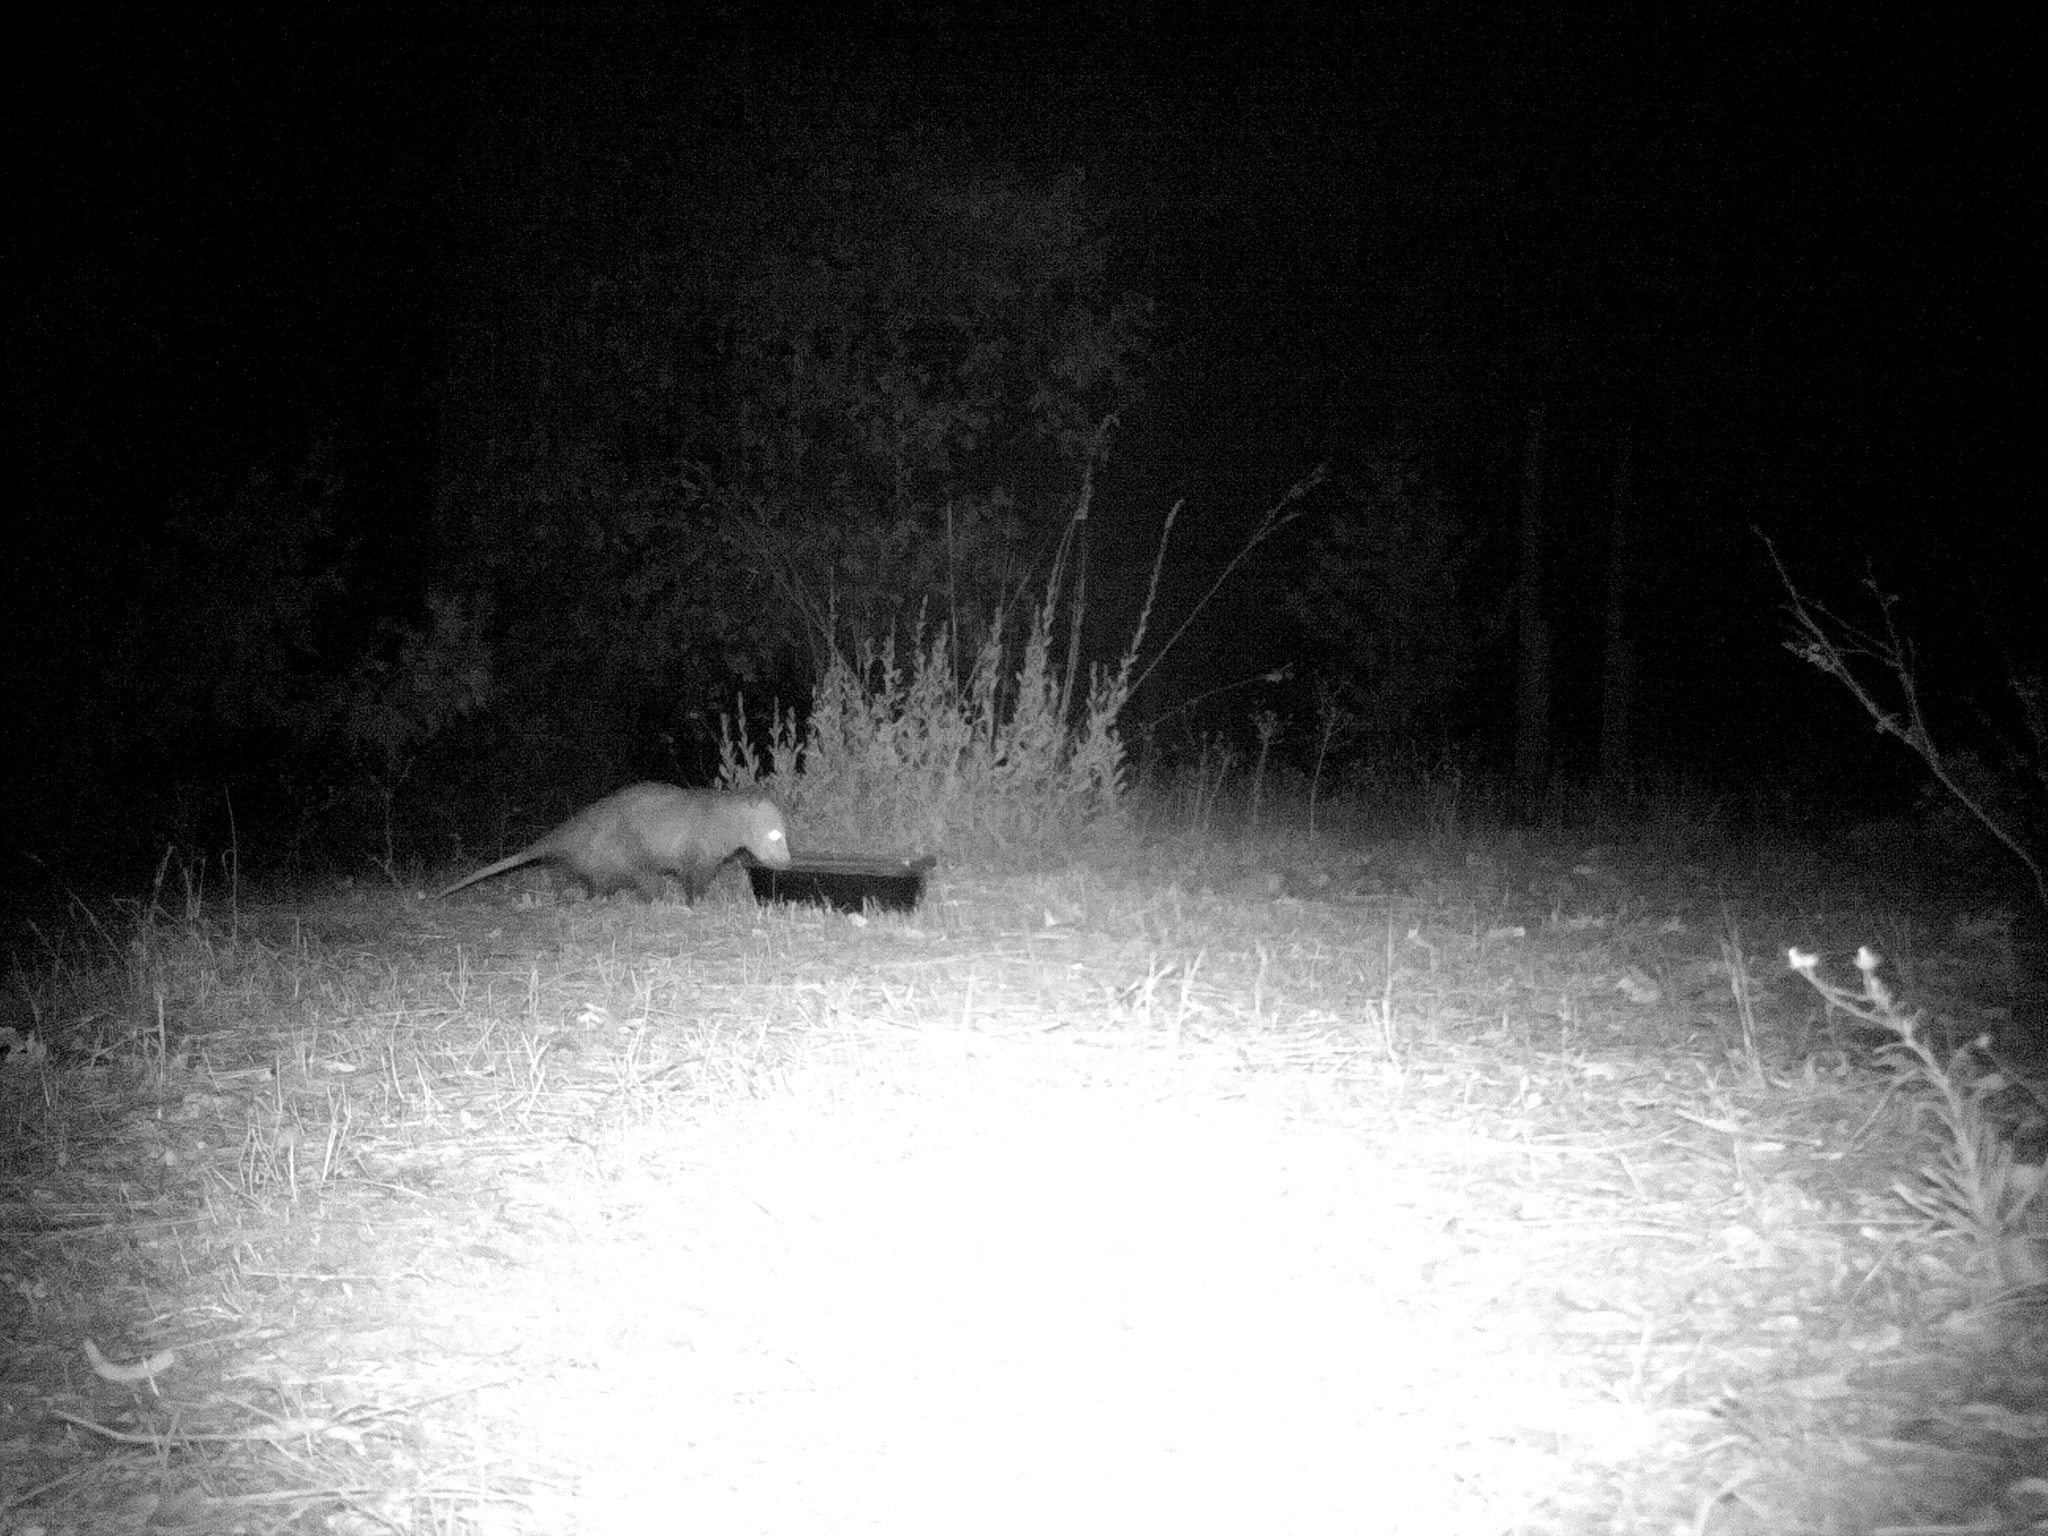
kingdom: Animalia
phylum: Chordata
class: Mammalia
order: Didelphimorphia
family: Didelphidae
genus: Didelphis
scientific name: Didelphis virginiana
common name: Virginia opossum
